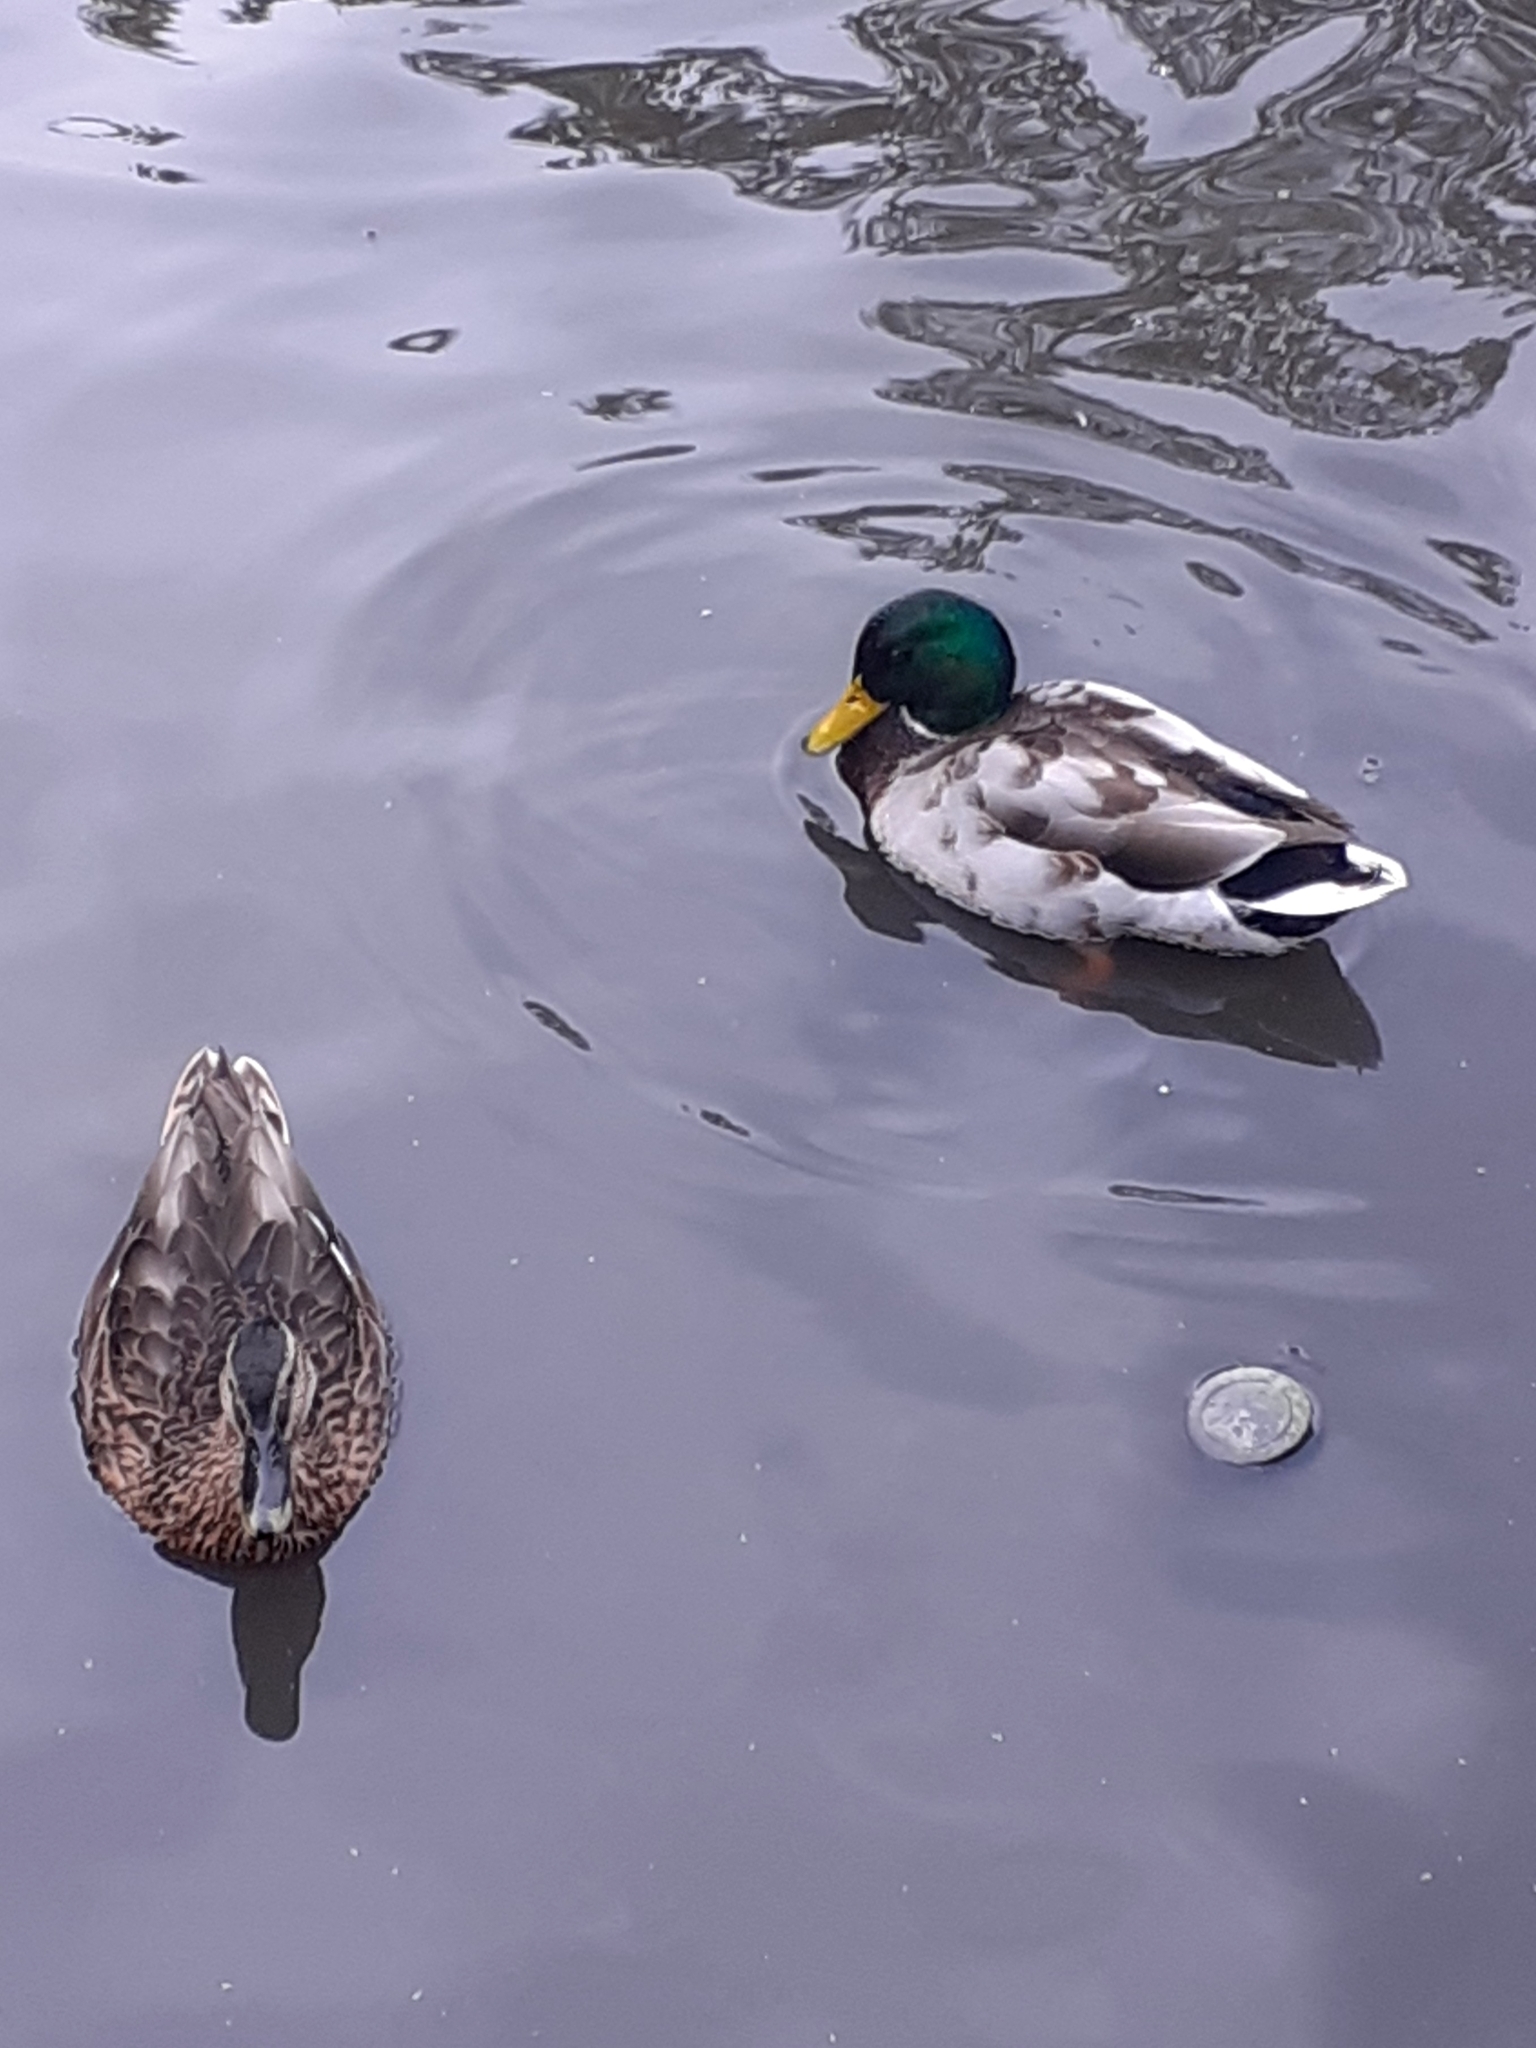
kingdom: Animalia
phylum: Chordata
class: Aves
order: Anseriformes
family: Anatidae
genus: Anas
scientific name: Anas platyrhynchos
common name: Mallard
